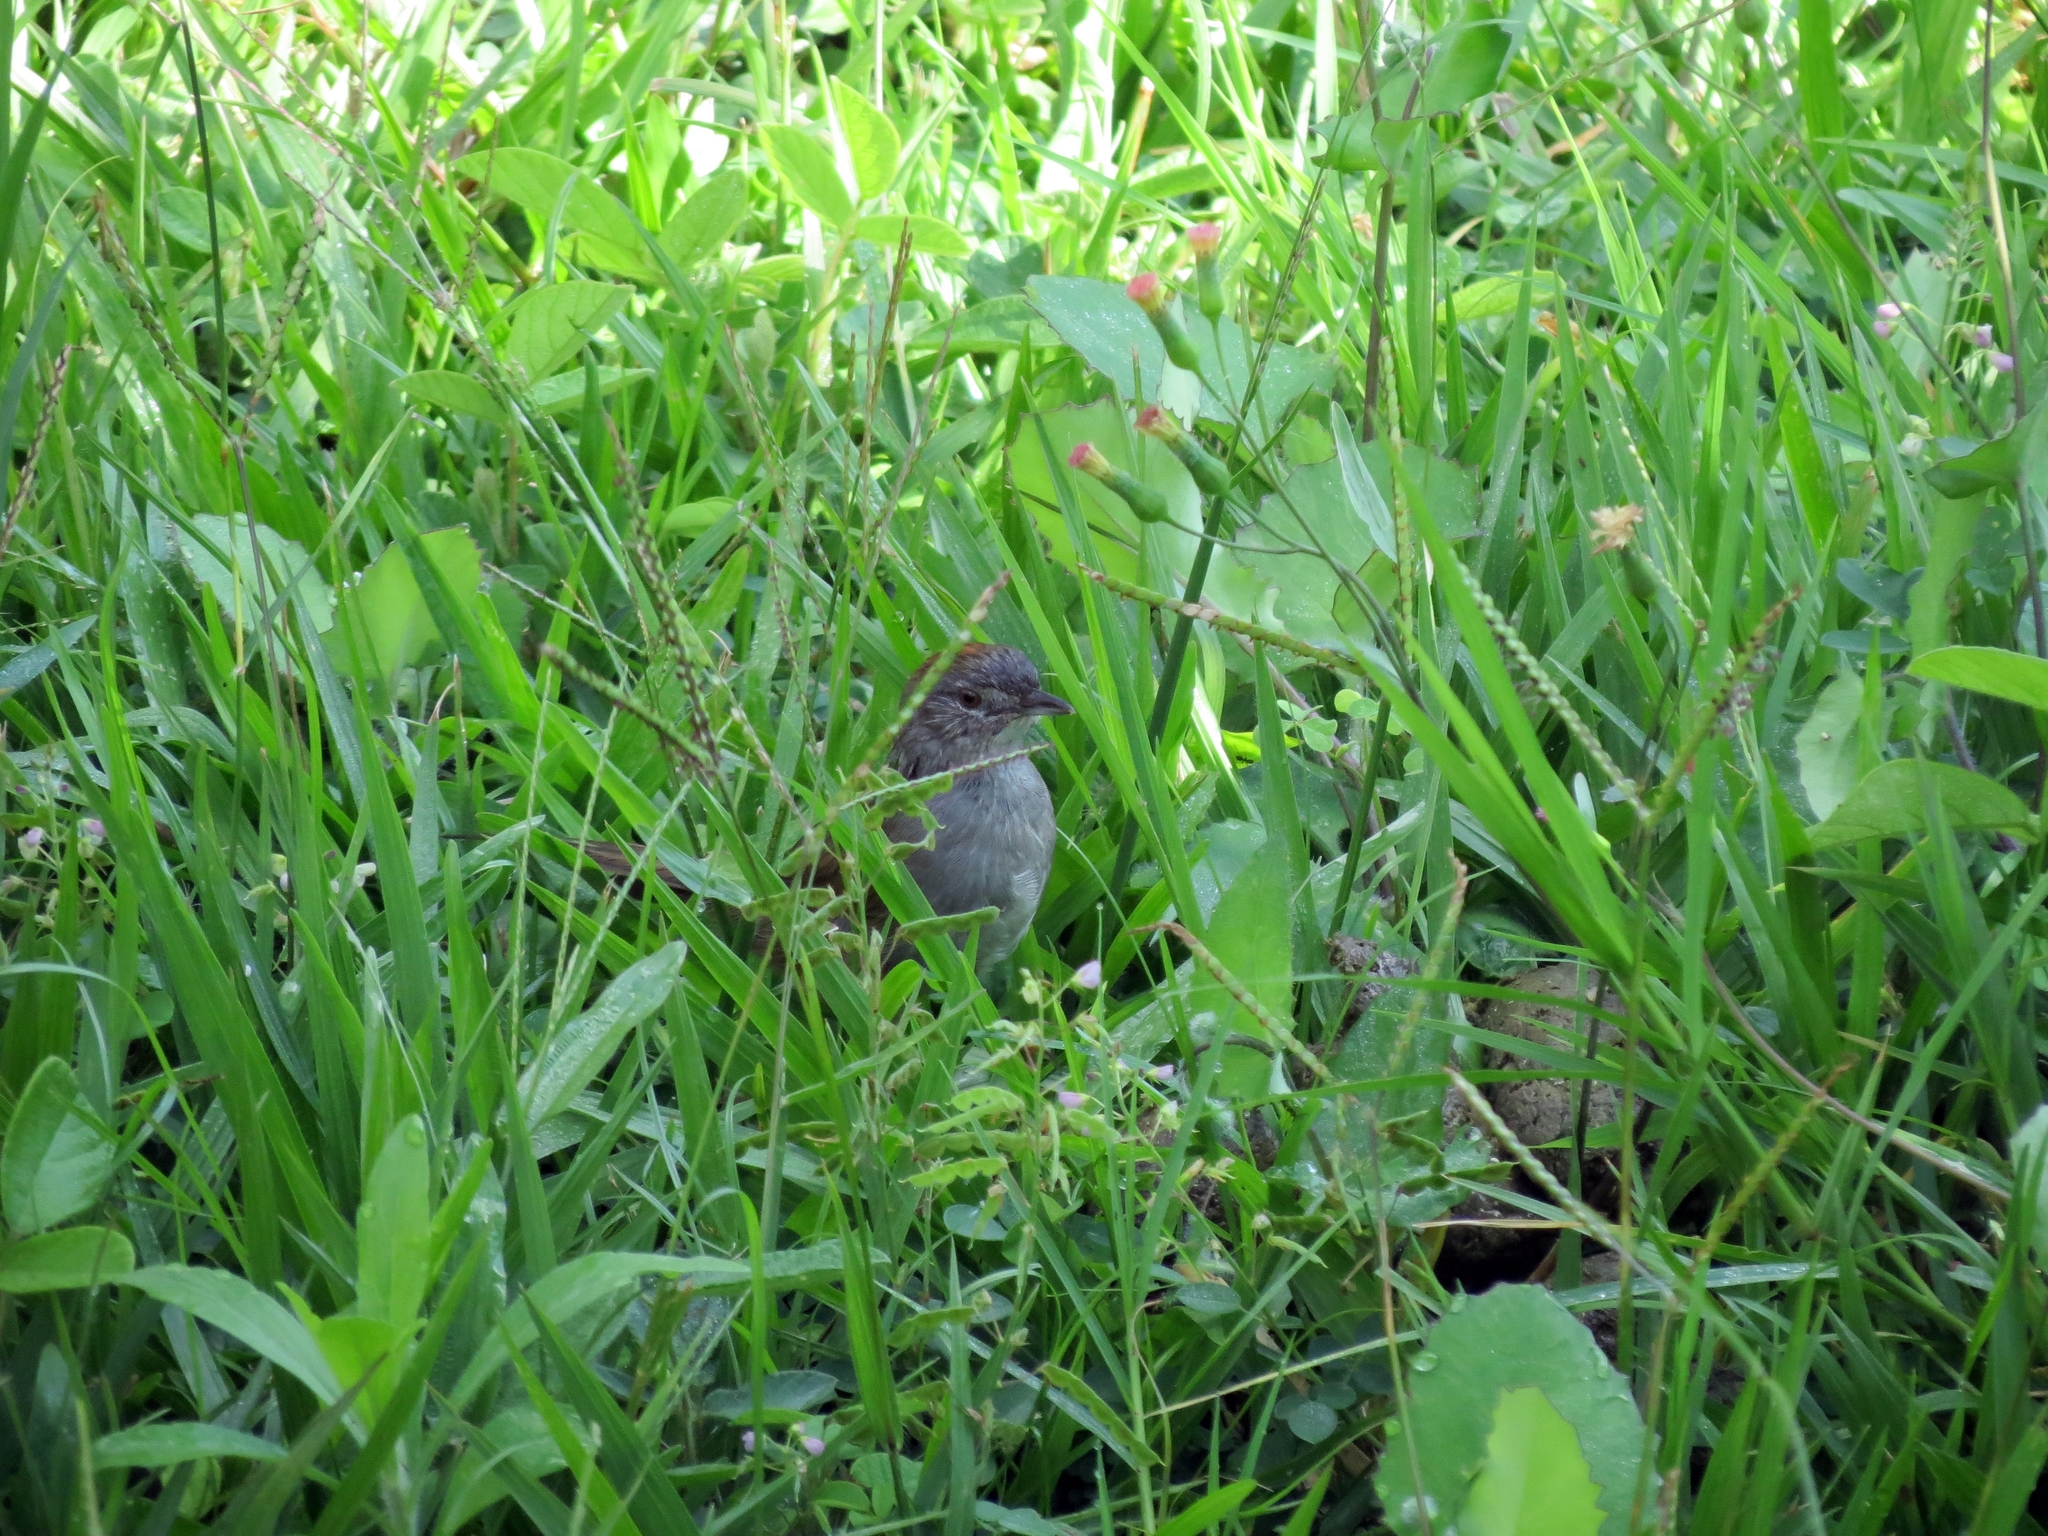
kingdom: Animalia
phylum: Chordata
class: Aves
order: Passeriformes
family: Furnariidae
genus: Synallaxis
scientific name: Synallaxis albescens
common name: Pale-breasted spinetail
